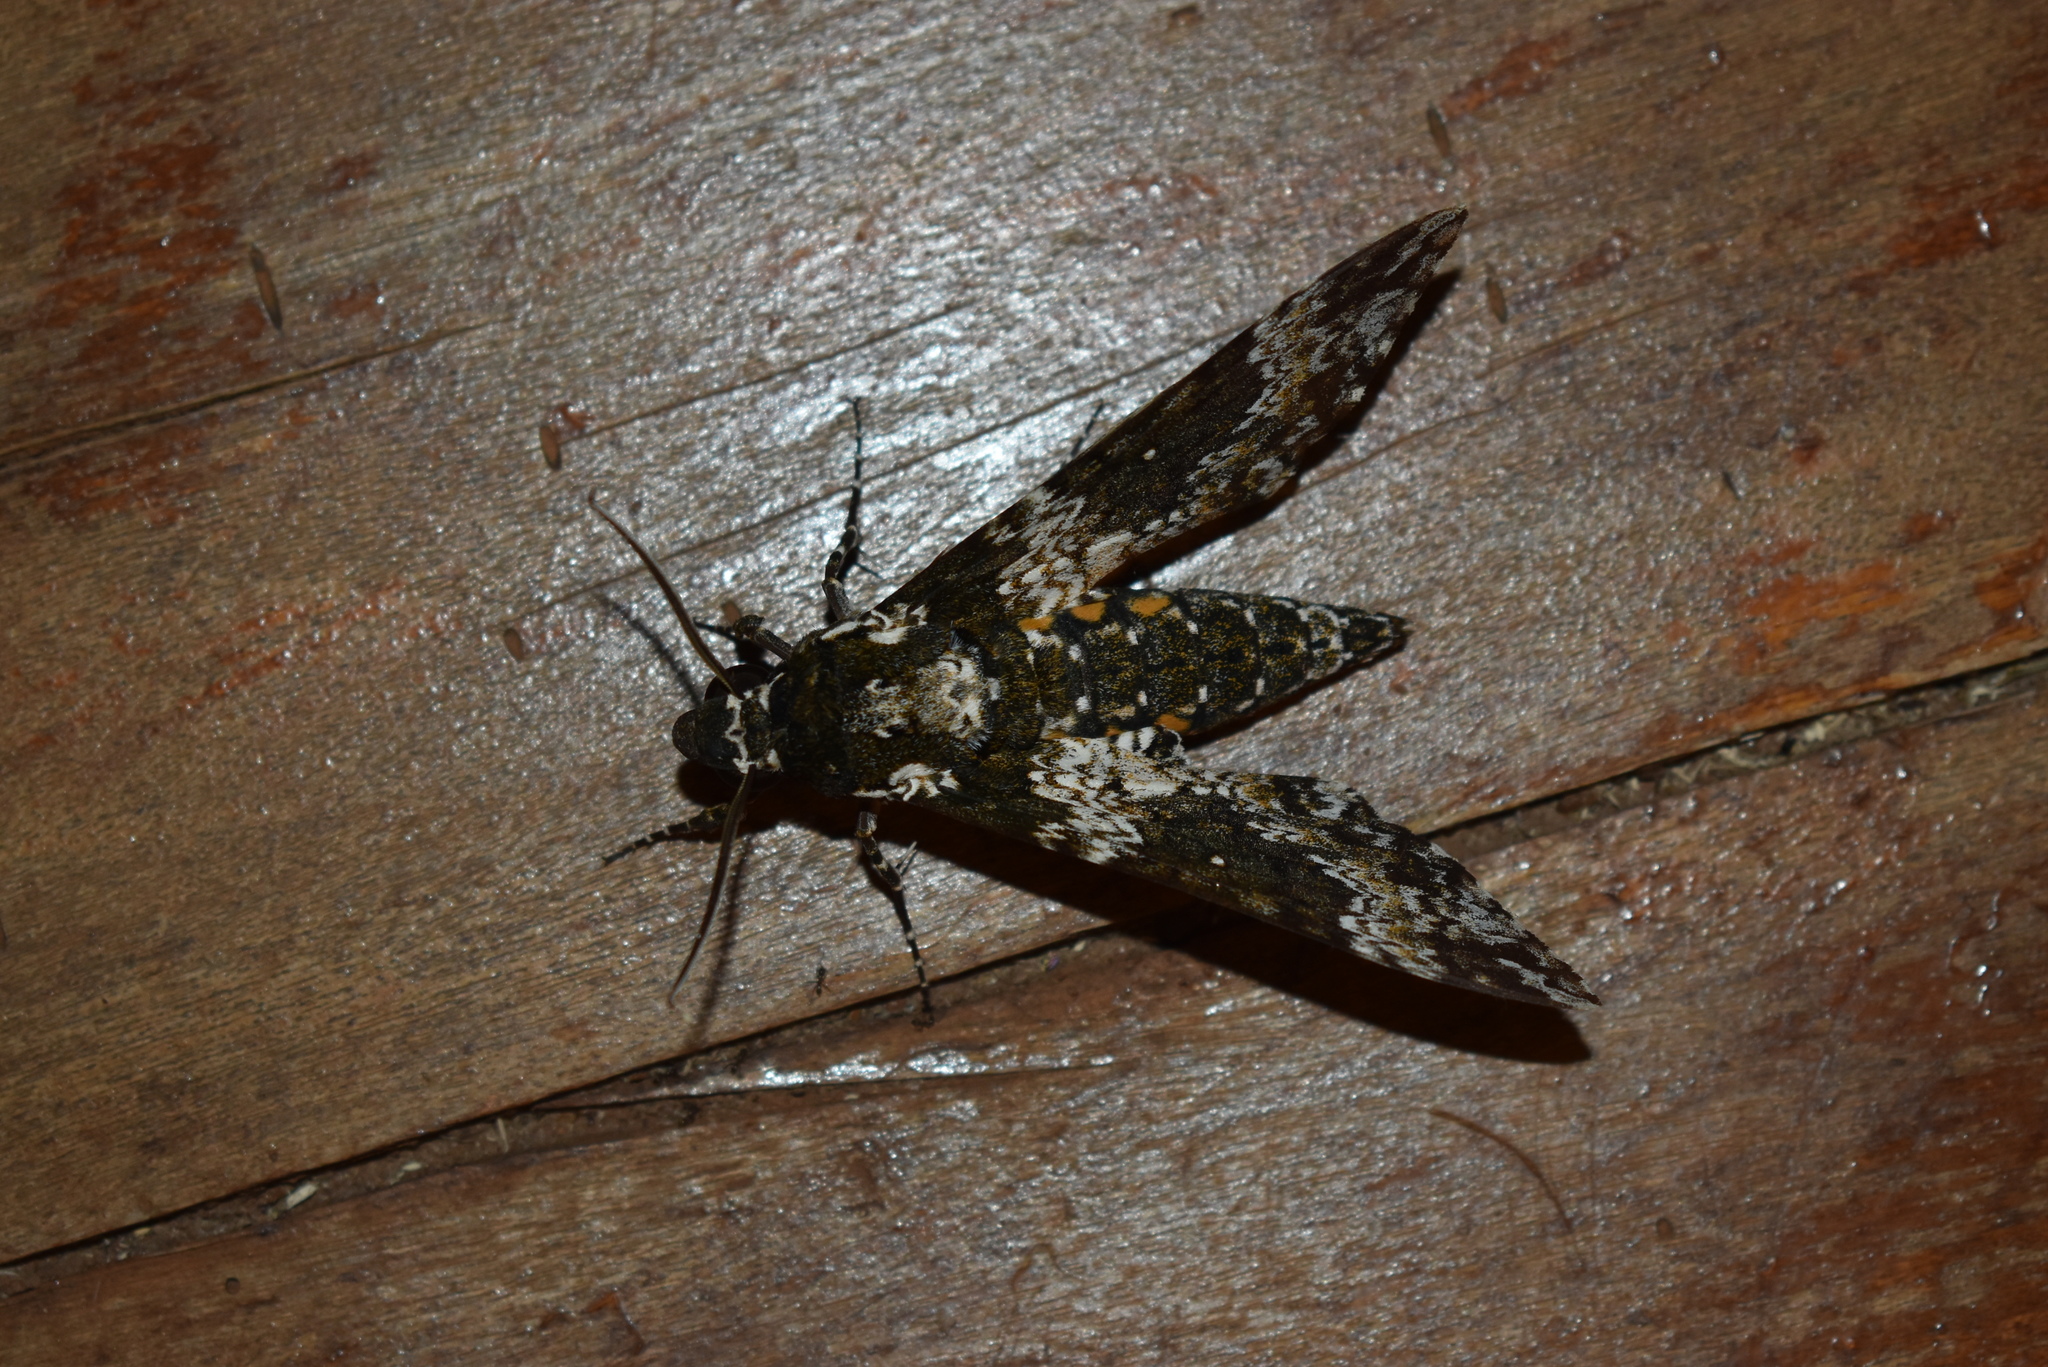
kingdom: Animalia
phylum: Arthropoda
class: Insecta
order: Lepidoptera
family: Sphingidae
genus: Manduca
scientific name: Manduca rustica
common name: Rustic sphinx
